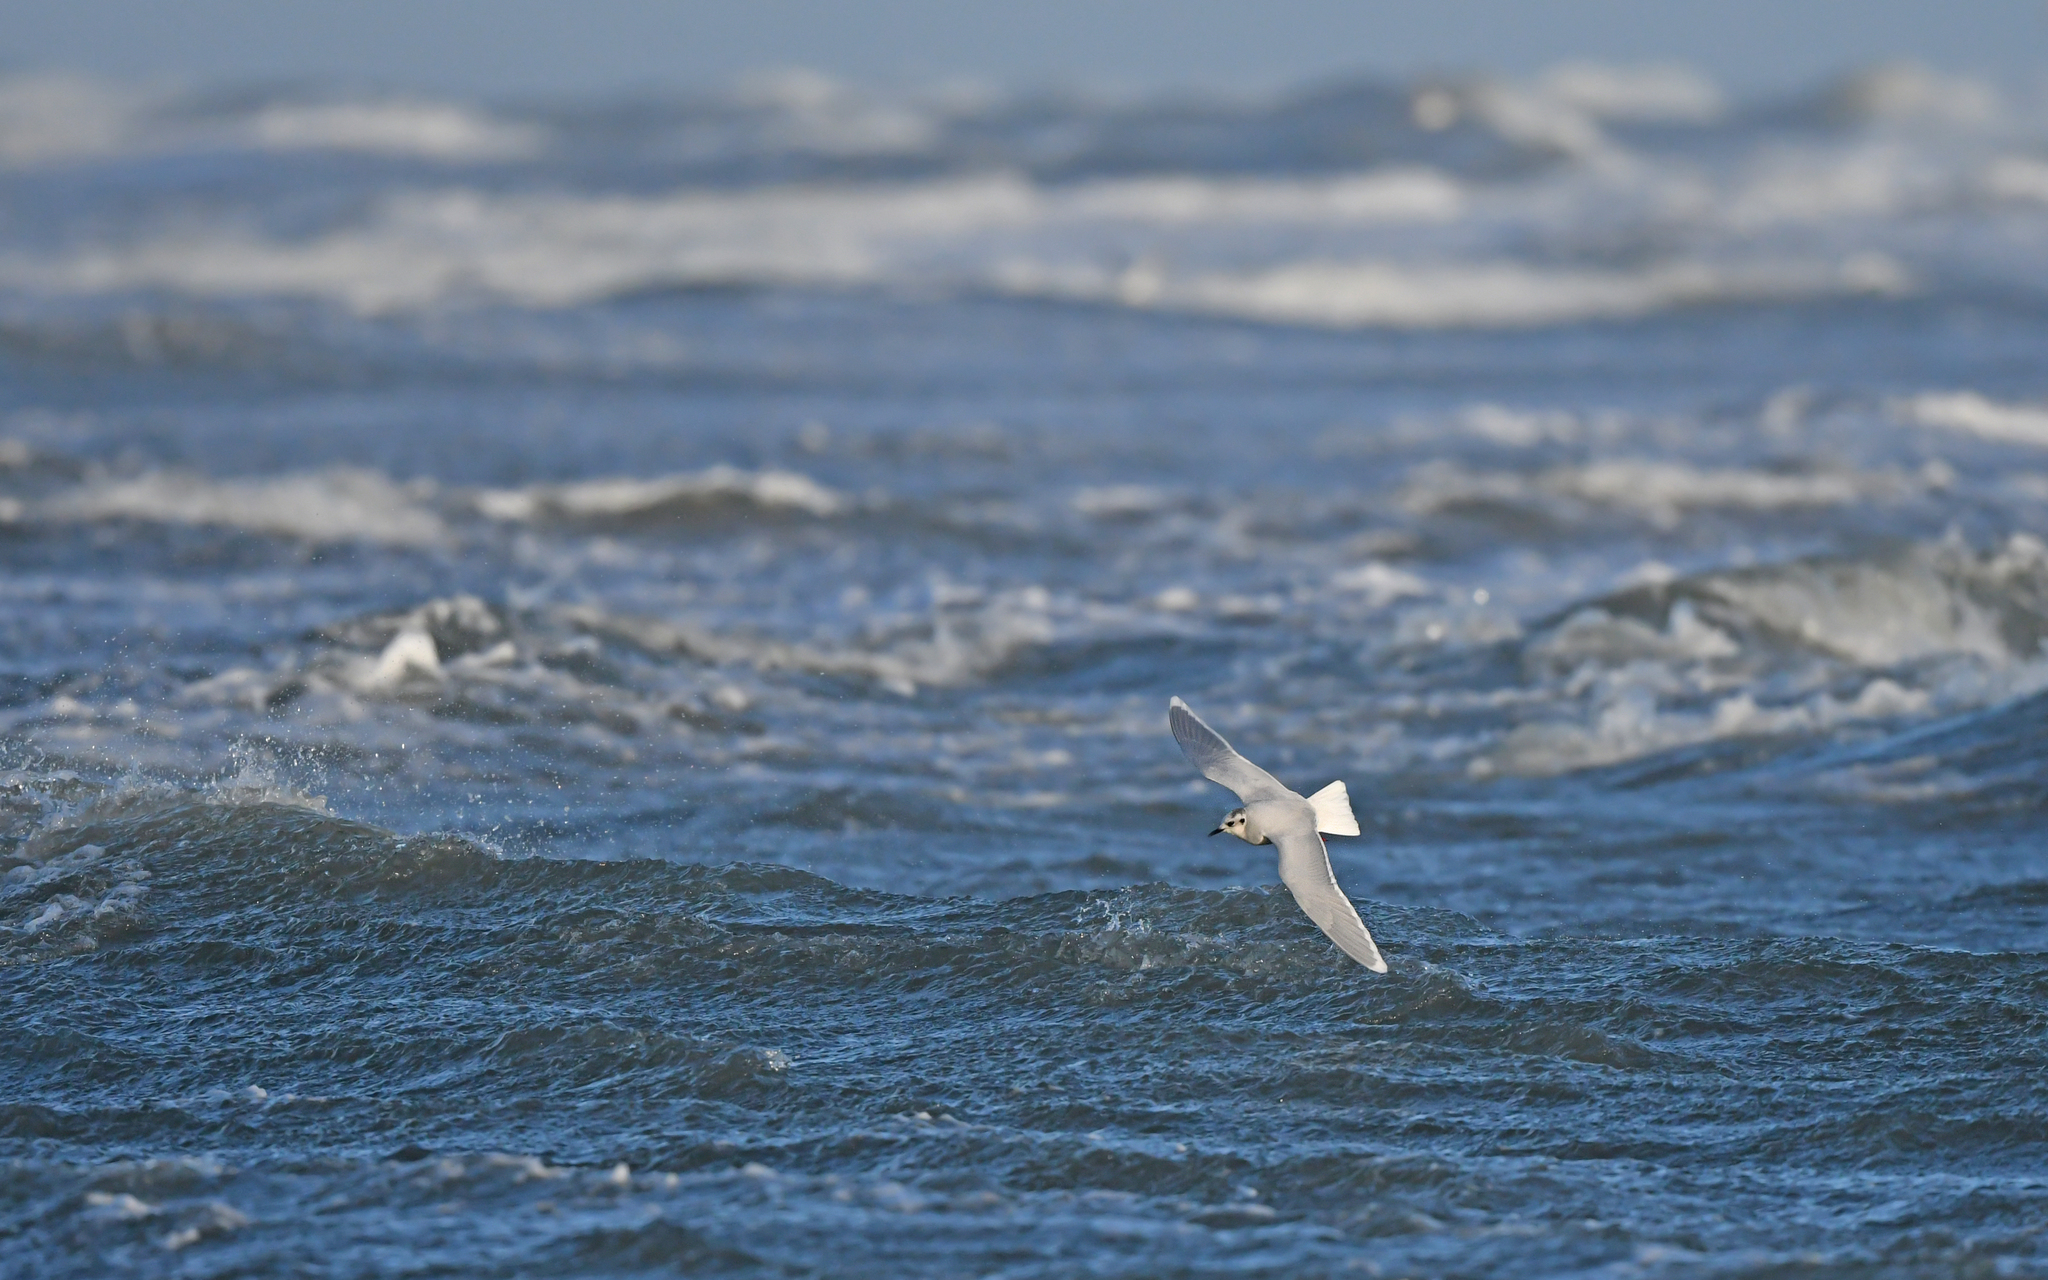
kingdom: Animalia
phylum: Chordata
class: Aves
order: Charadriiformes
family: Laridae
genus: Hydrocoloeus
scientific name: Hydrocoloeus minutus
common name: Little gull
